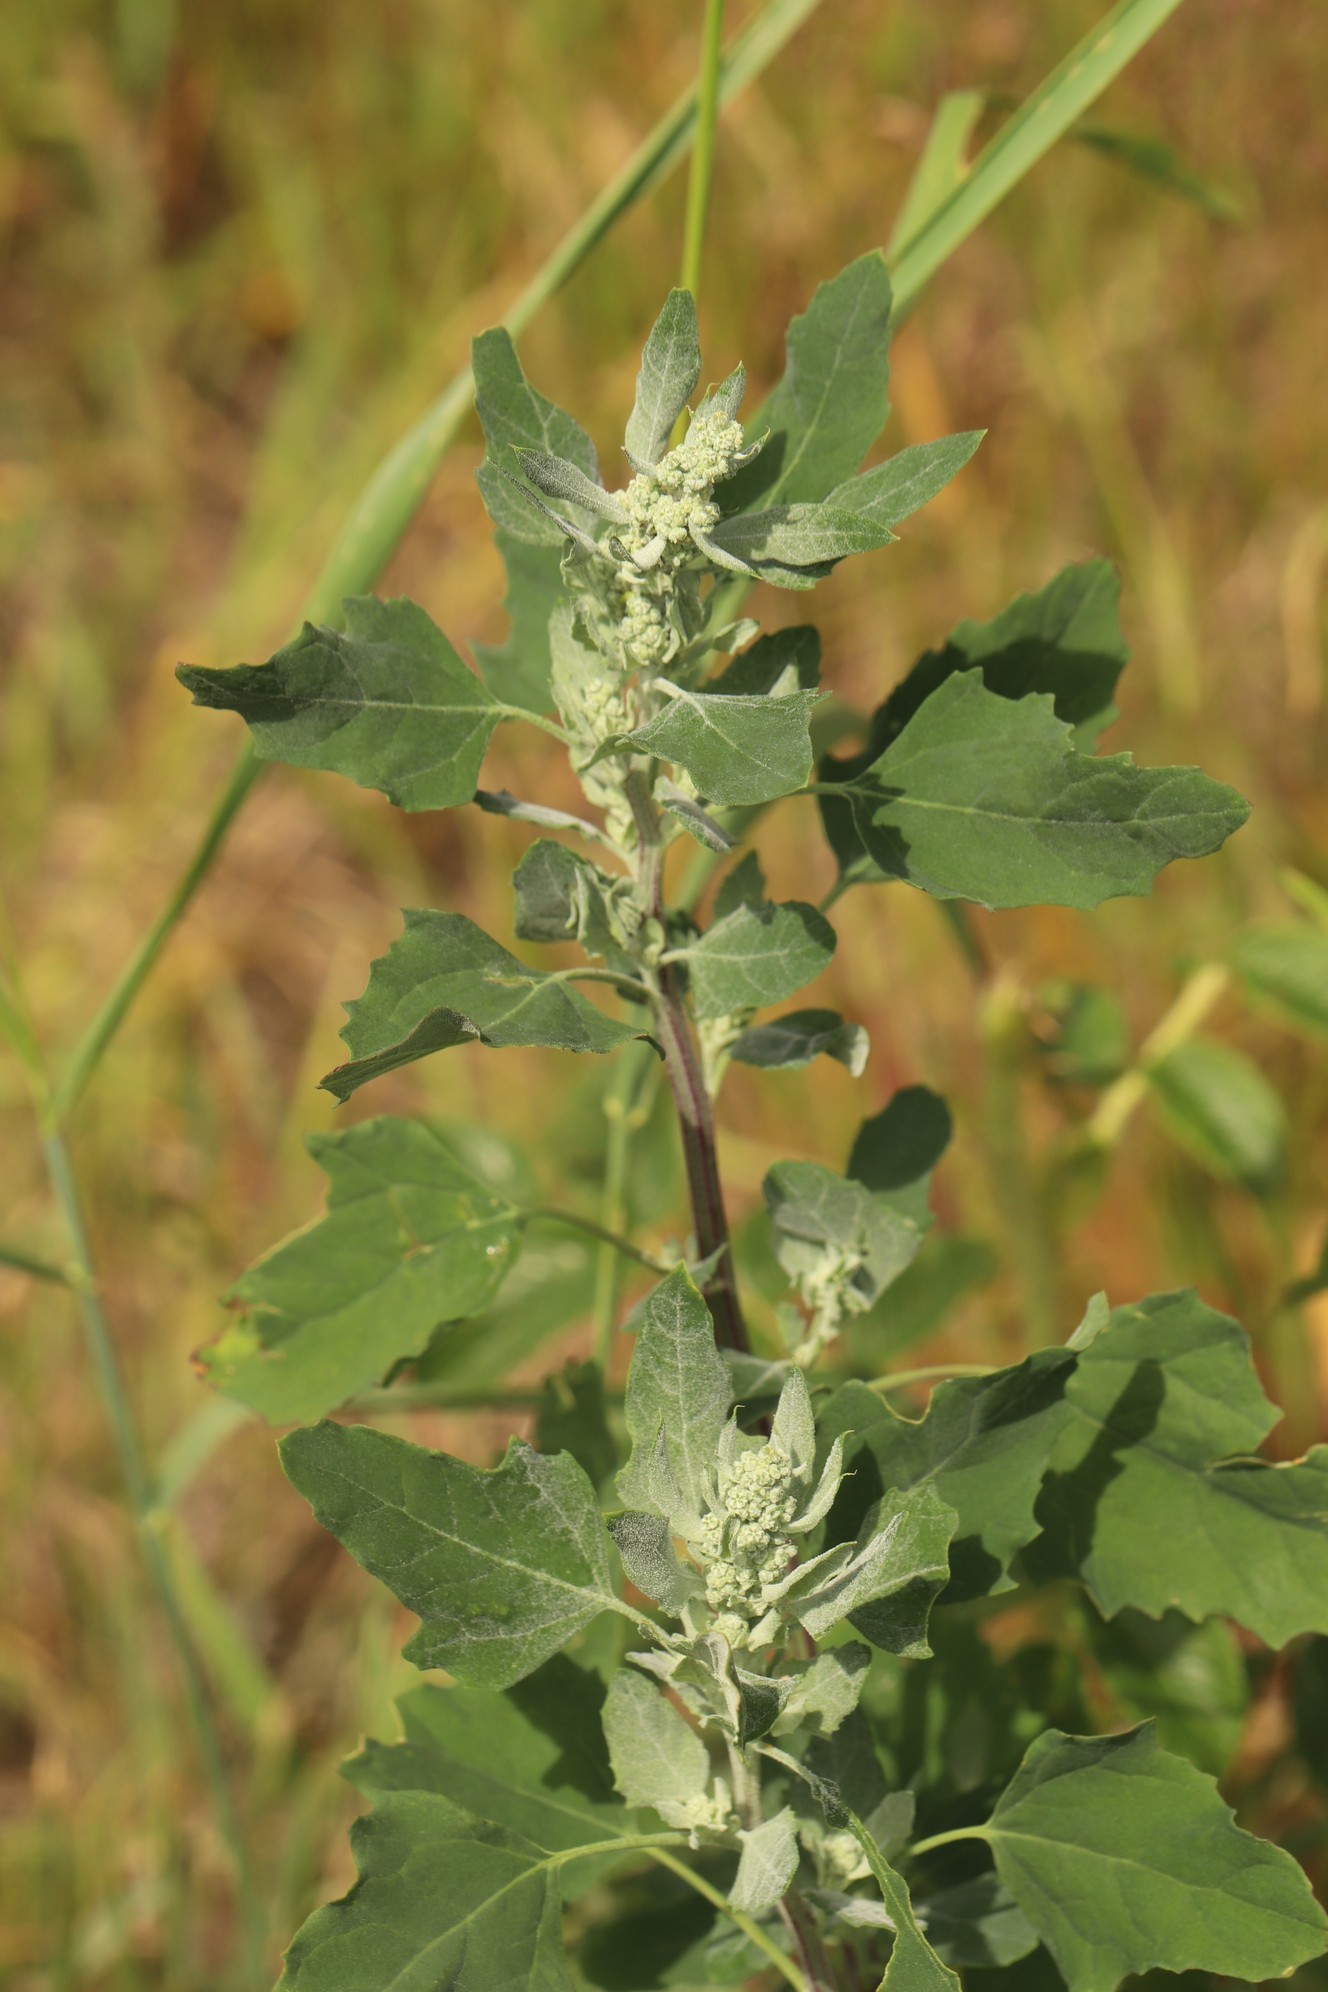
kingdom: Plantae
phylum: Tracheophyta
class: Magnoliopsida
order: Caryophyllales
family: Amaranthaceae
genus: Chenopodium
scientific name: Chenopodium album
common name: Fat-hen
